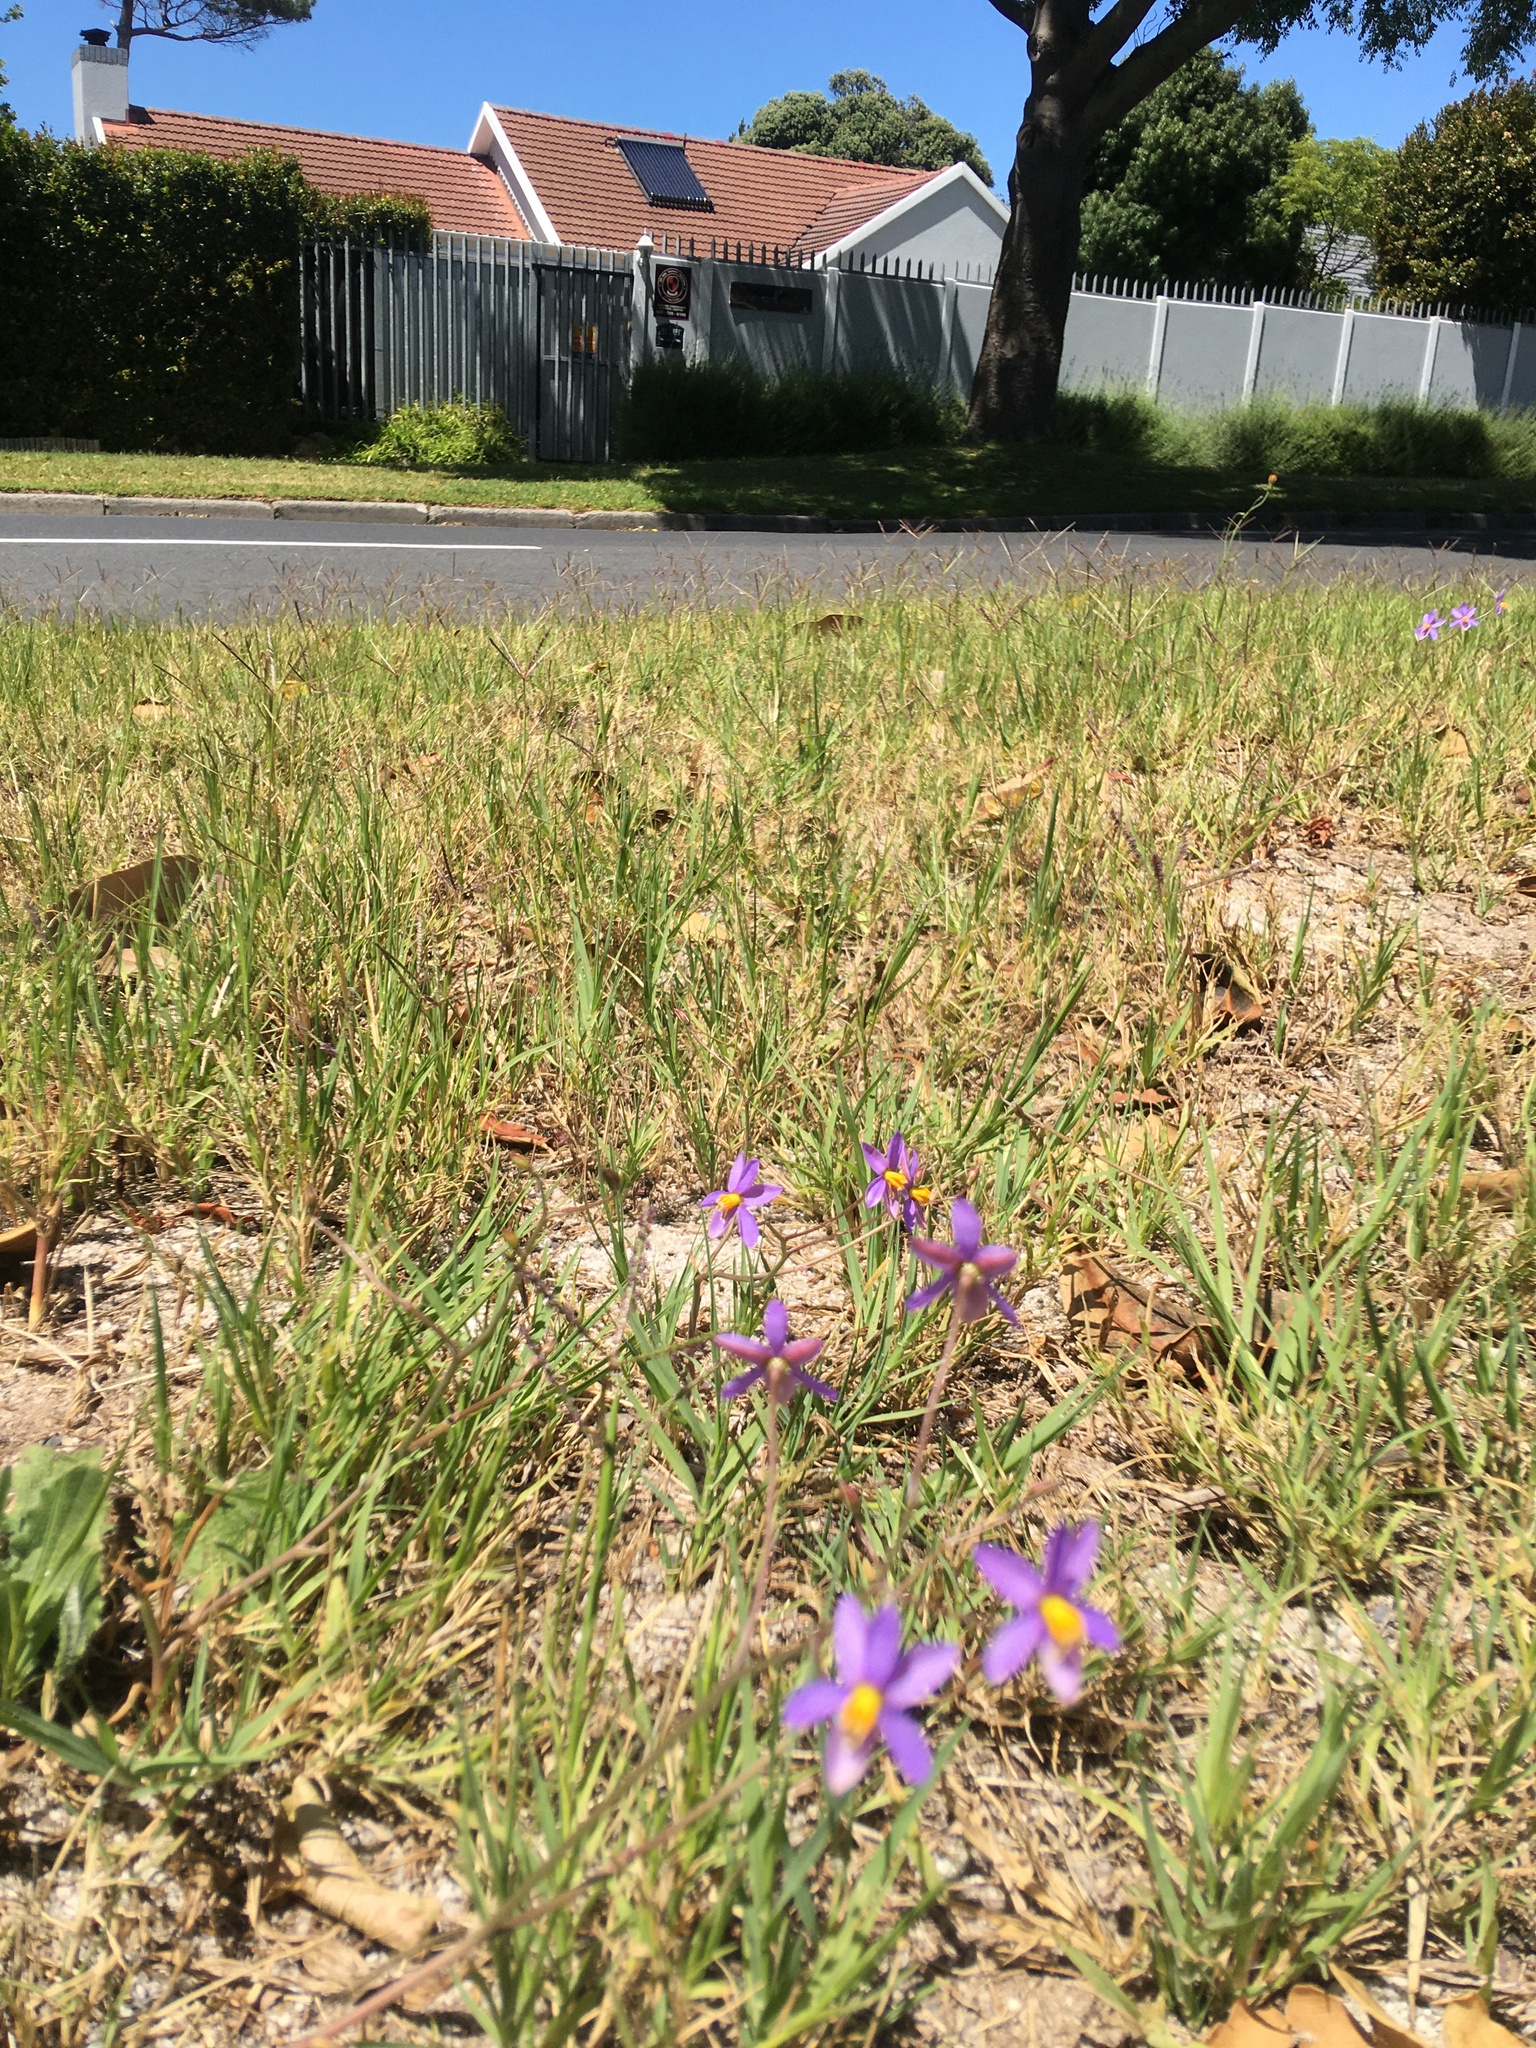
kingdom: Plantae
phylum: Tracheophyta
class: Liliopsida
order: Asparagales
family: Tecophilaeaceae
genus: Cyanella
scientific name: Cyanella hyacinthoides
